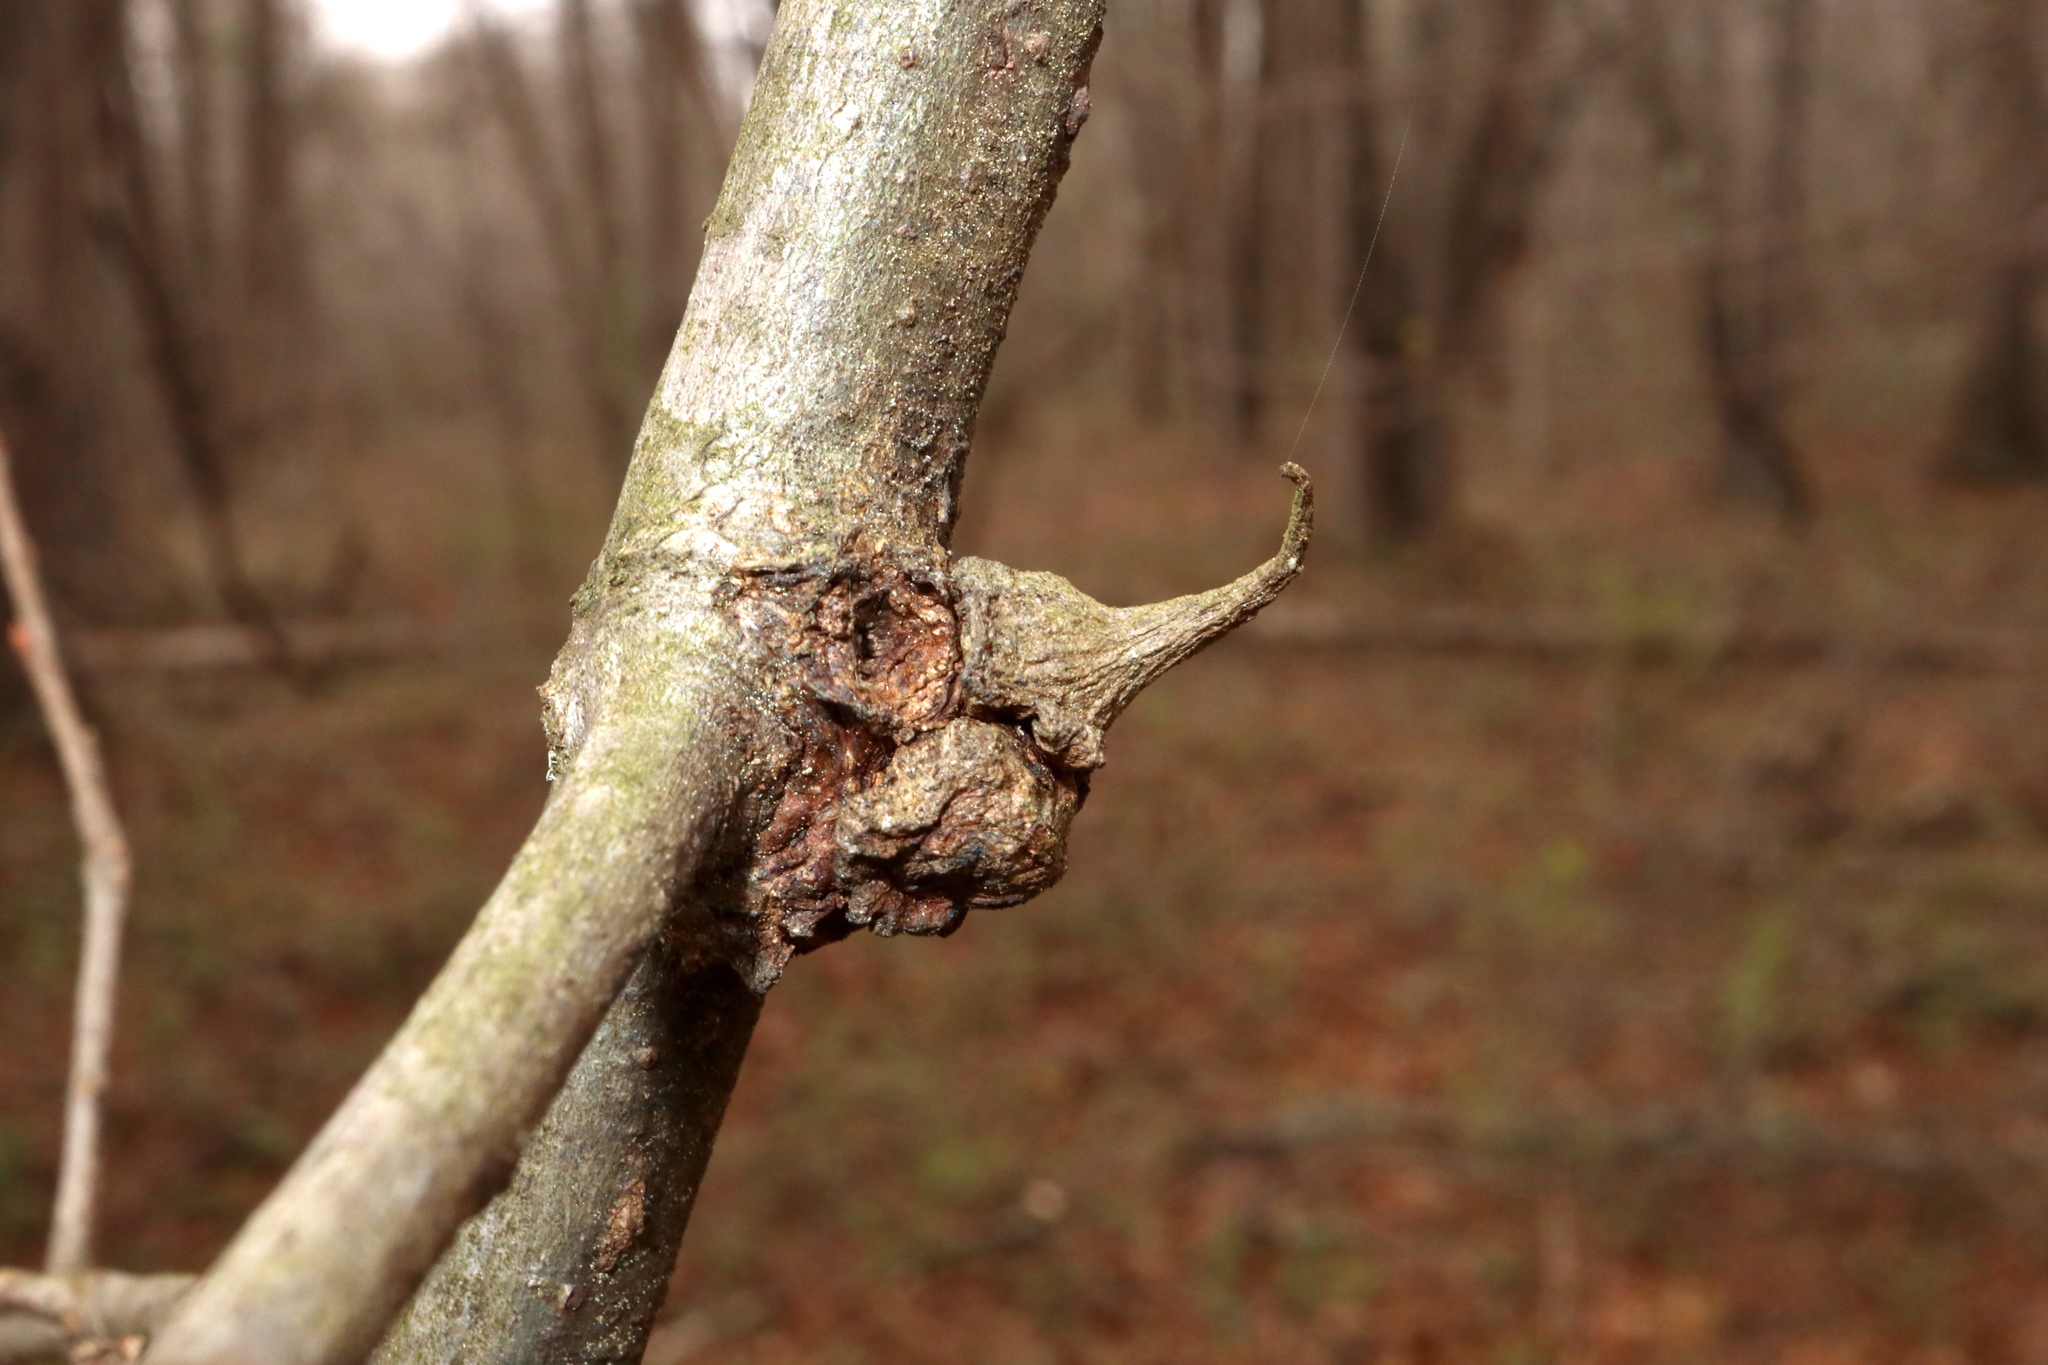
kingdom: Animalia
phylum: Arthropoda
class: Insecta
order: Hymenoptera
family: Cynipidae
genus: Callirhytis
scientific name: Callirhytis
